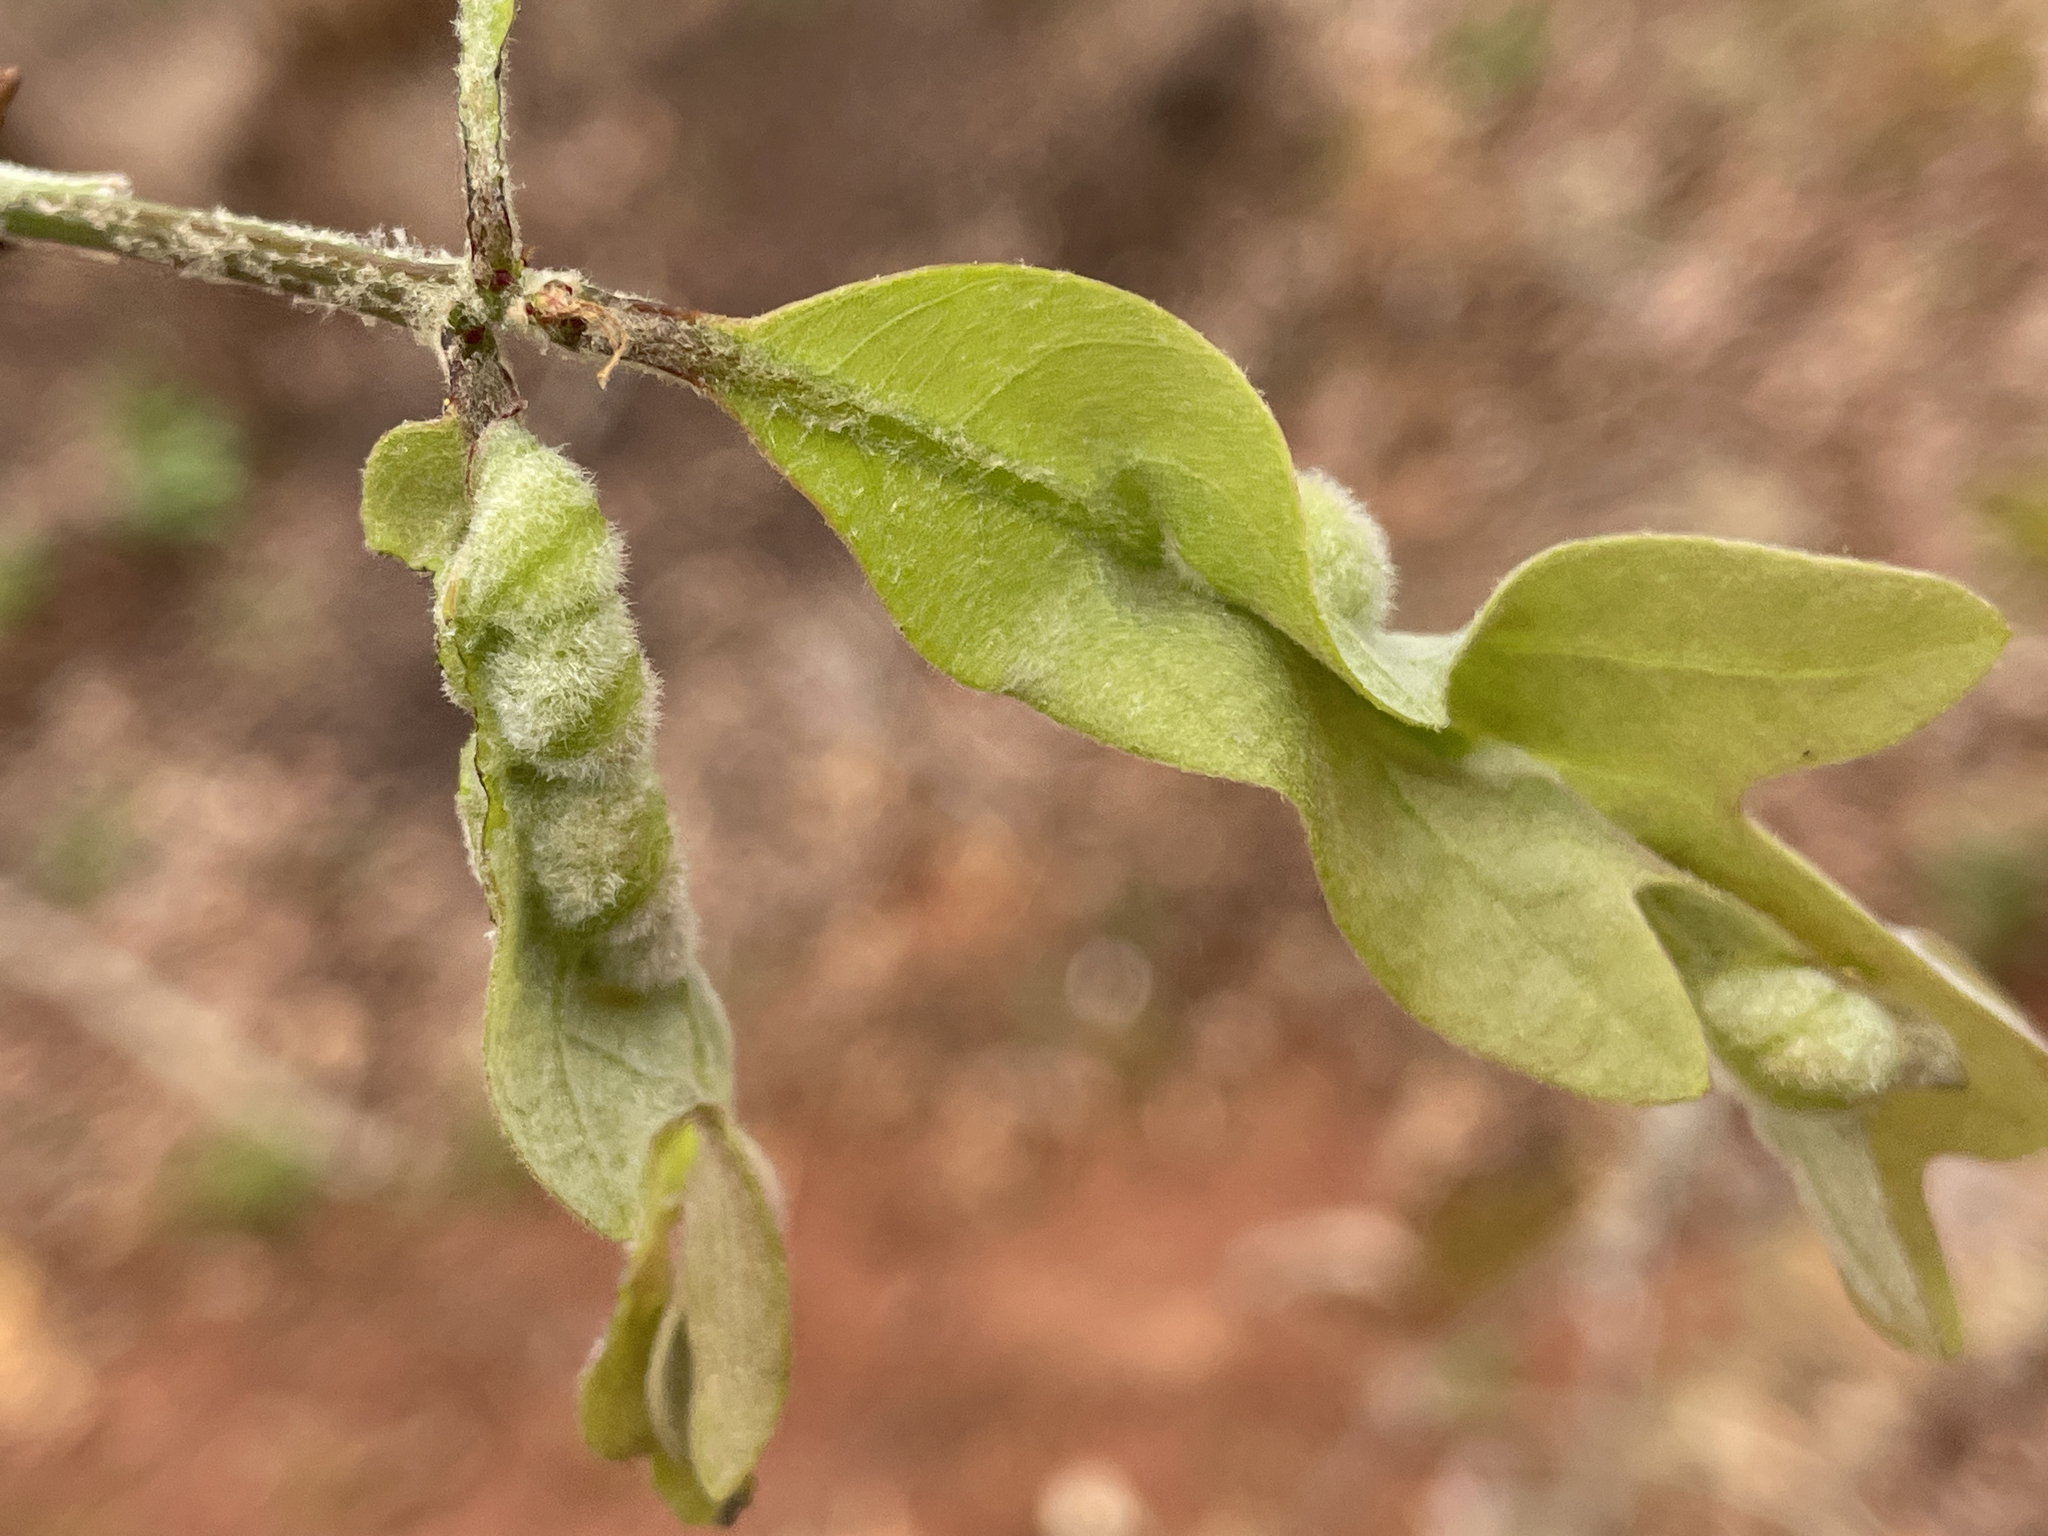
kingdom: Animalia
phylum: Arthropoda
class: Insecta
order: Diptera
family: Cecidomyiidae
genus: Macrodiplosis
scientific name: Macrodiplosis niveipila
